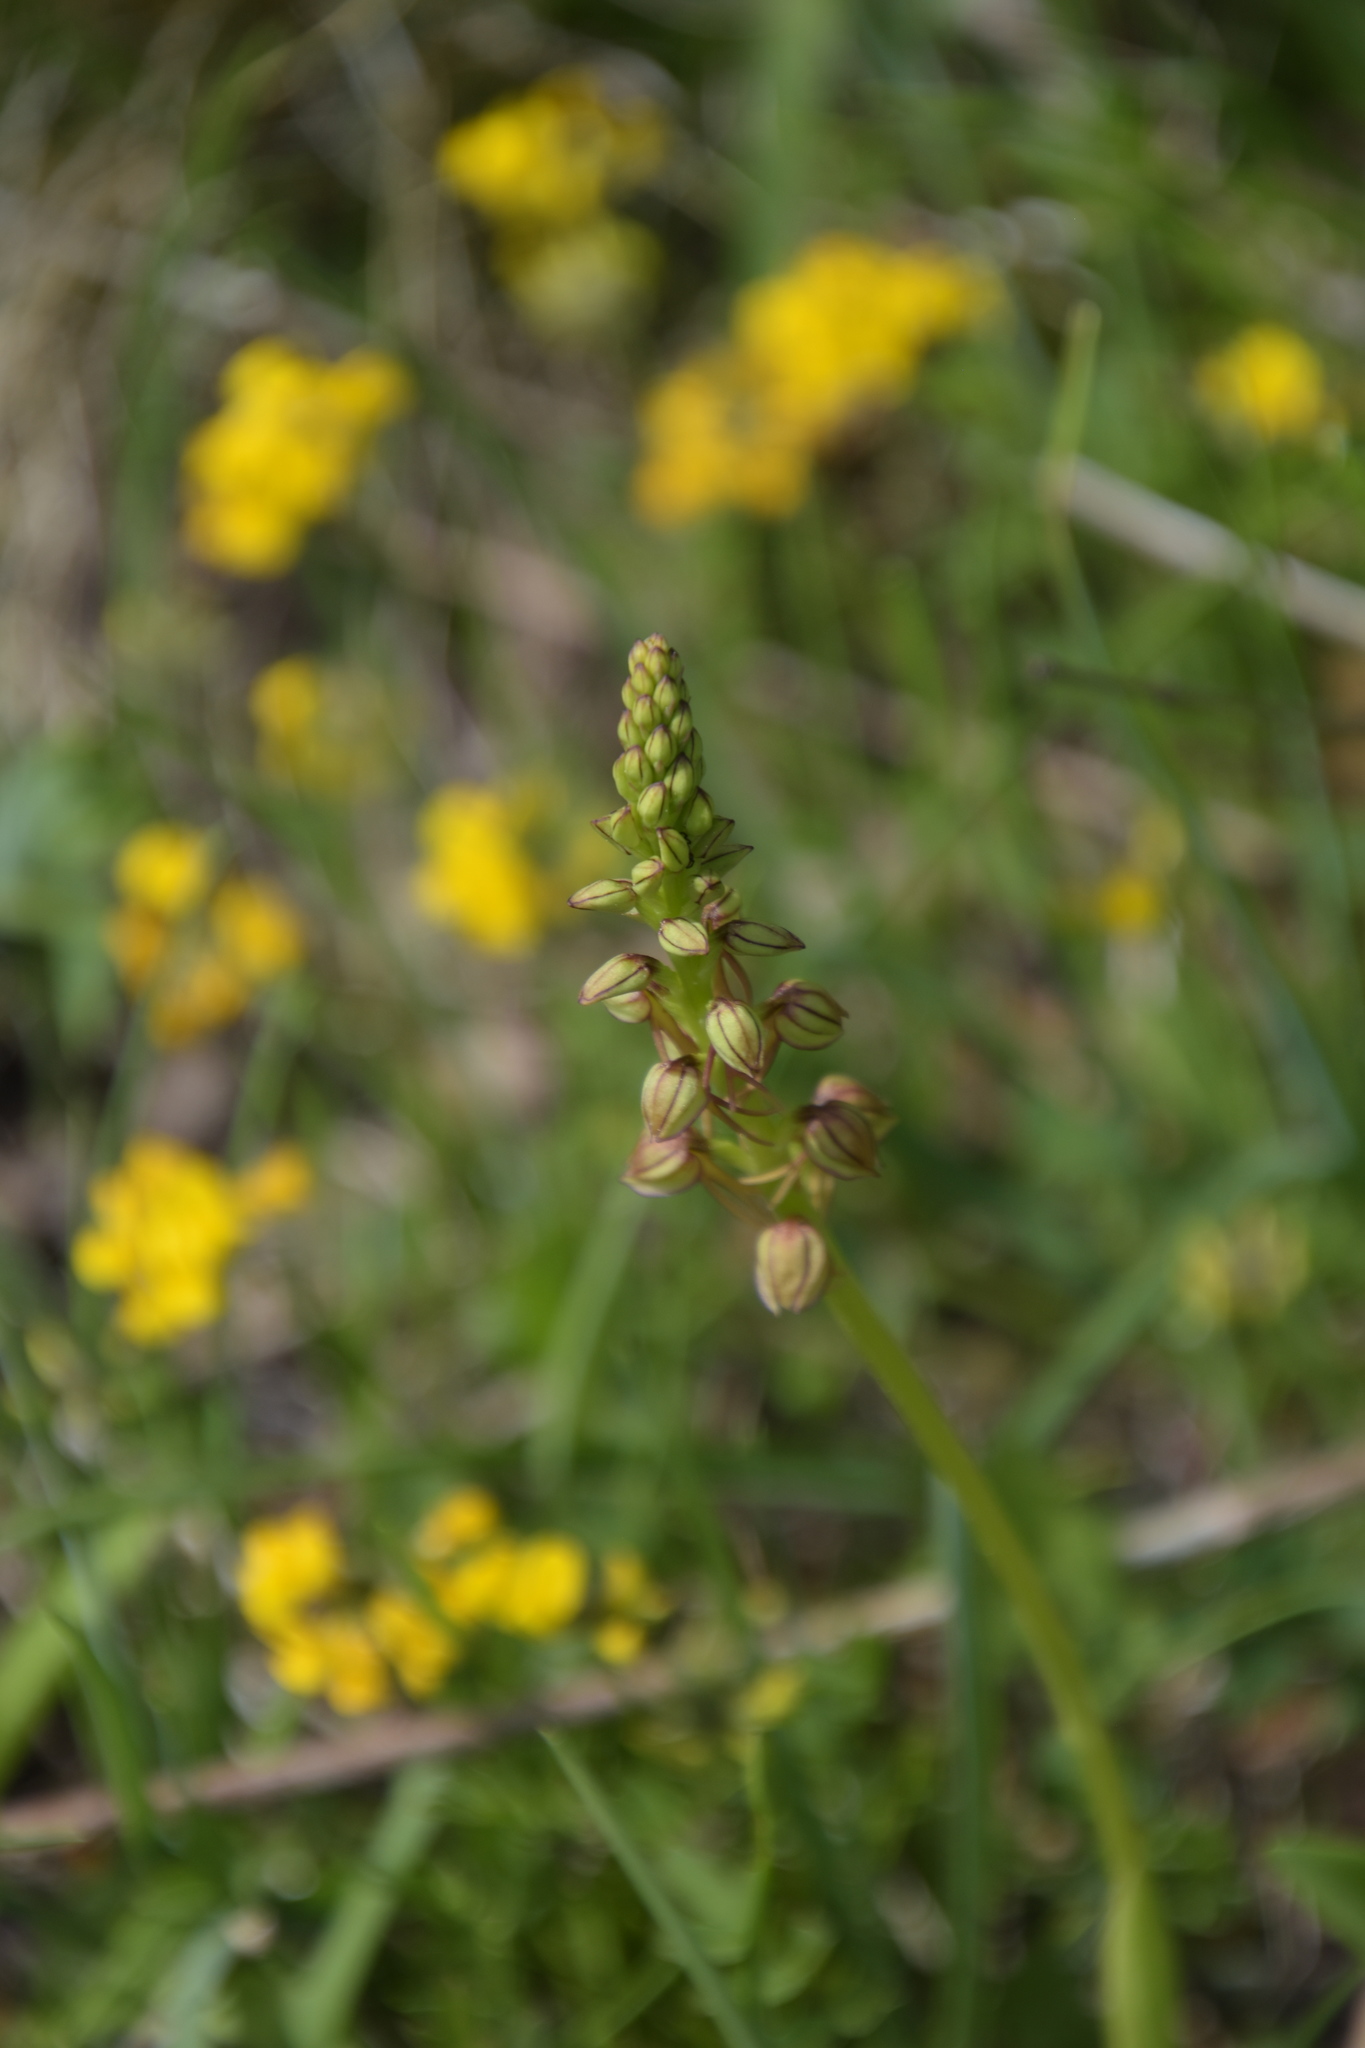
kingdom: Plantae
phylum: Tracheophyta
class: Liliopsida
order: Asparagales
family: Orchidaceae
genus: Orchis
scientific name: Orchis anthropophora
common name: Man orchid
